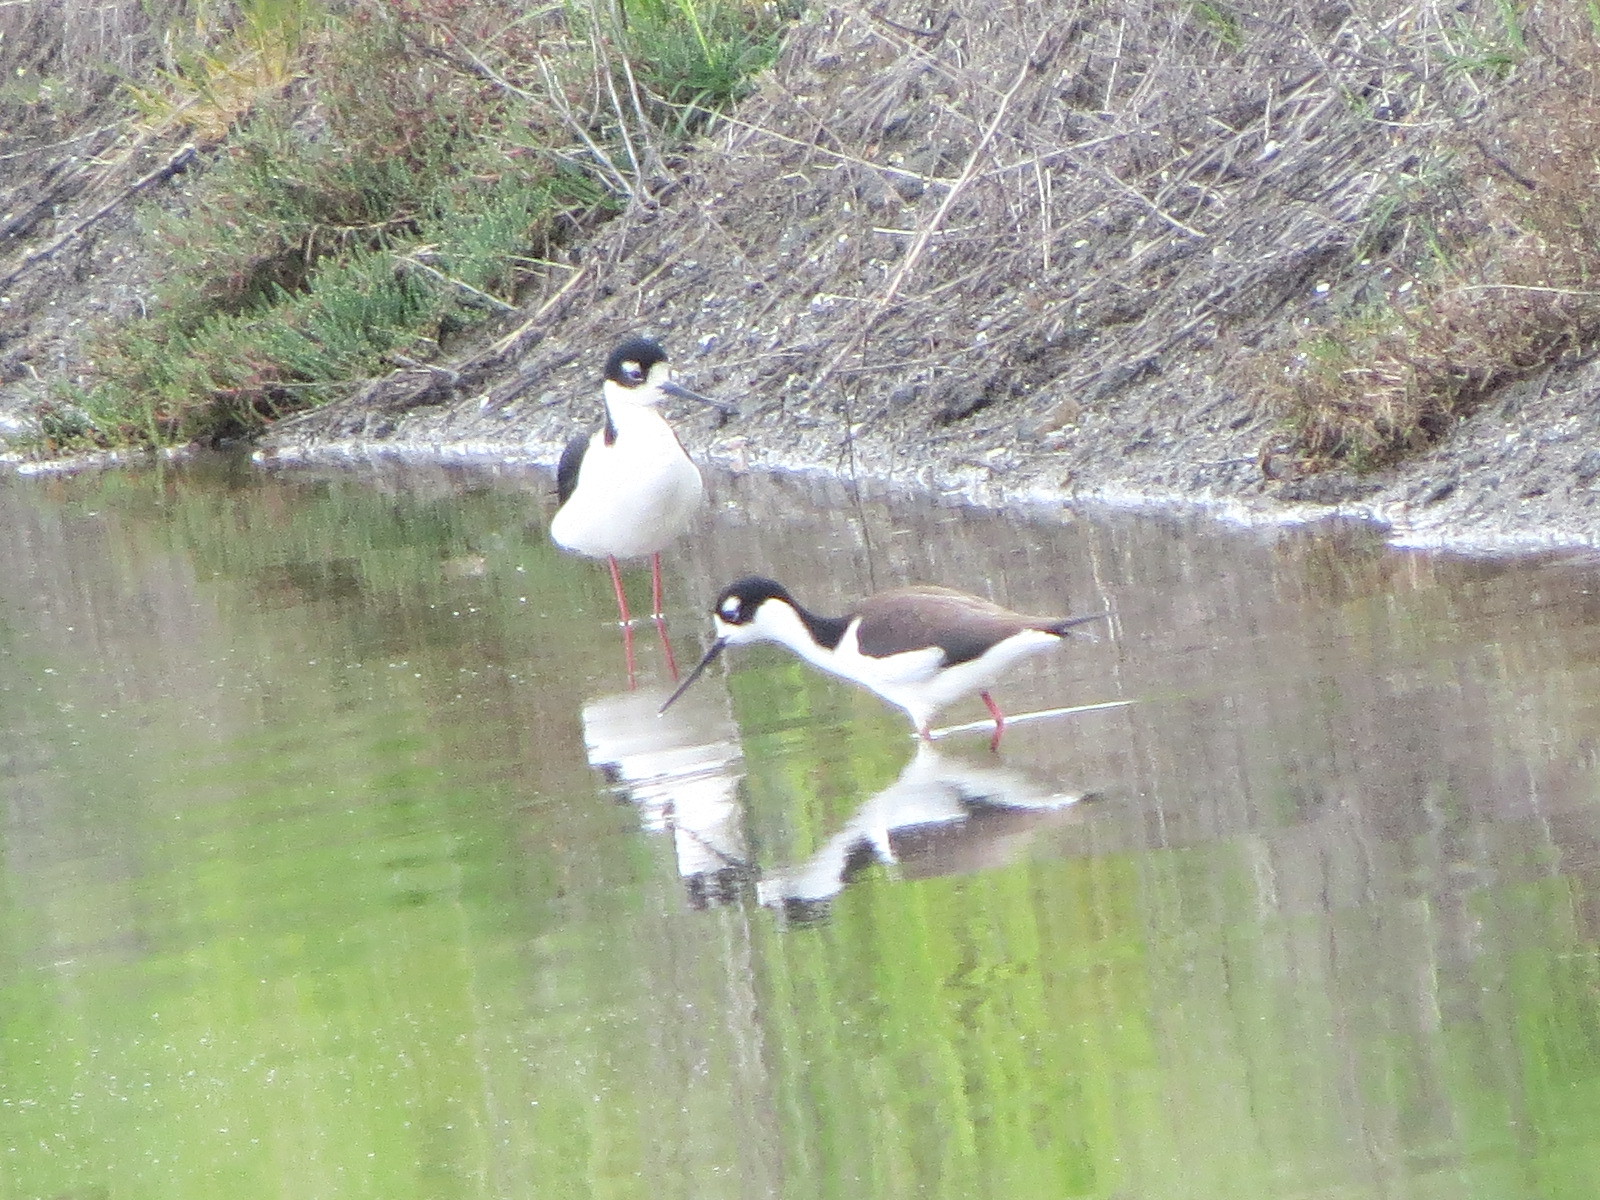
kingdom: Animalia
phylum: Chordata
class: Aves
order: Charadriiformes
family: Recurvirostridae
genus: Himantopus
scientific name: Himantopus mexicanus
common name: Black-necked stilt
